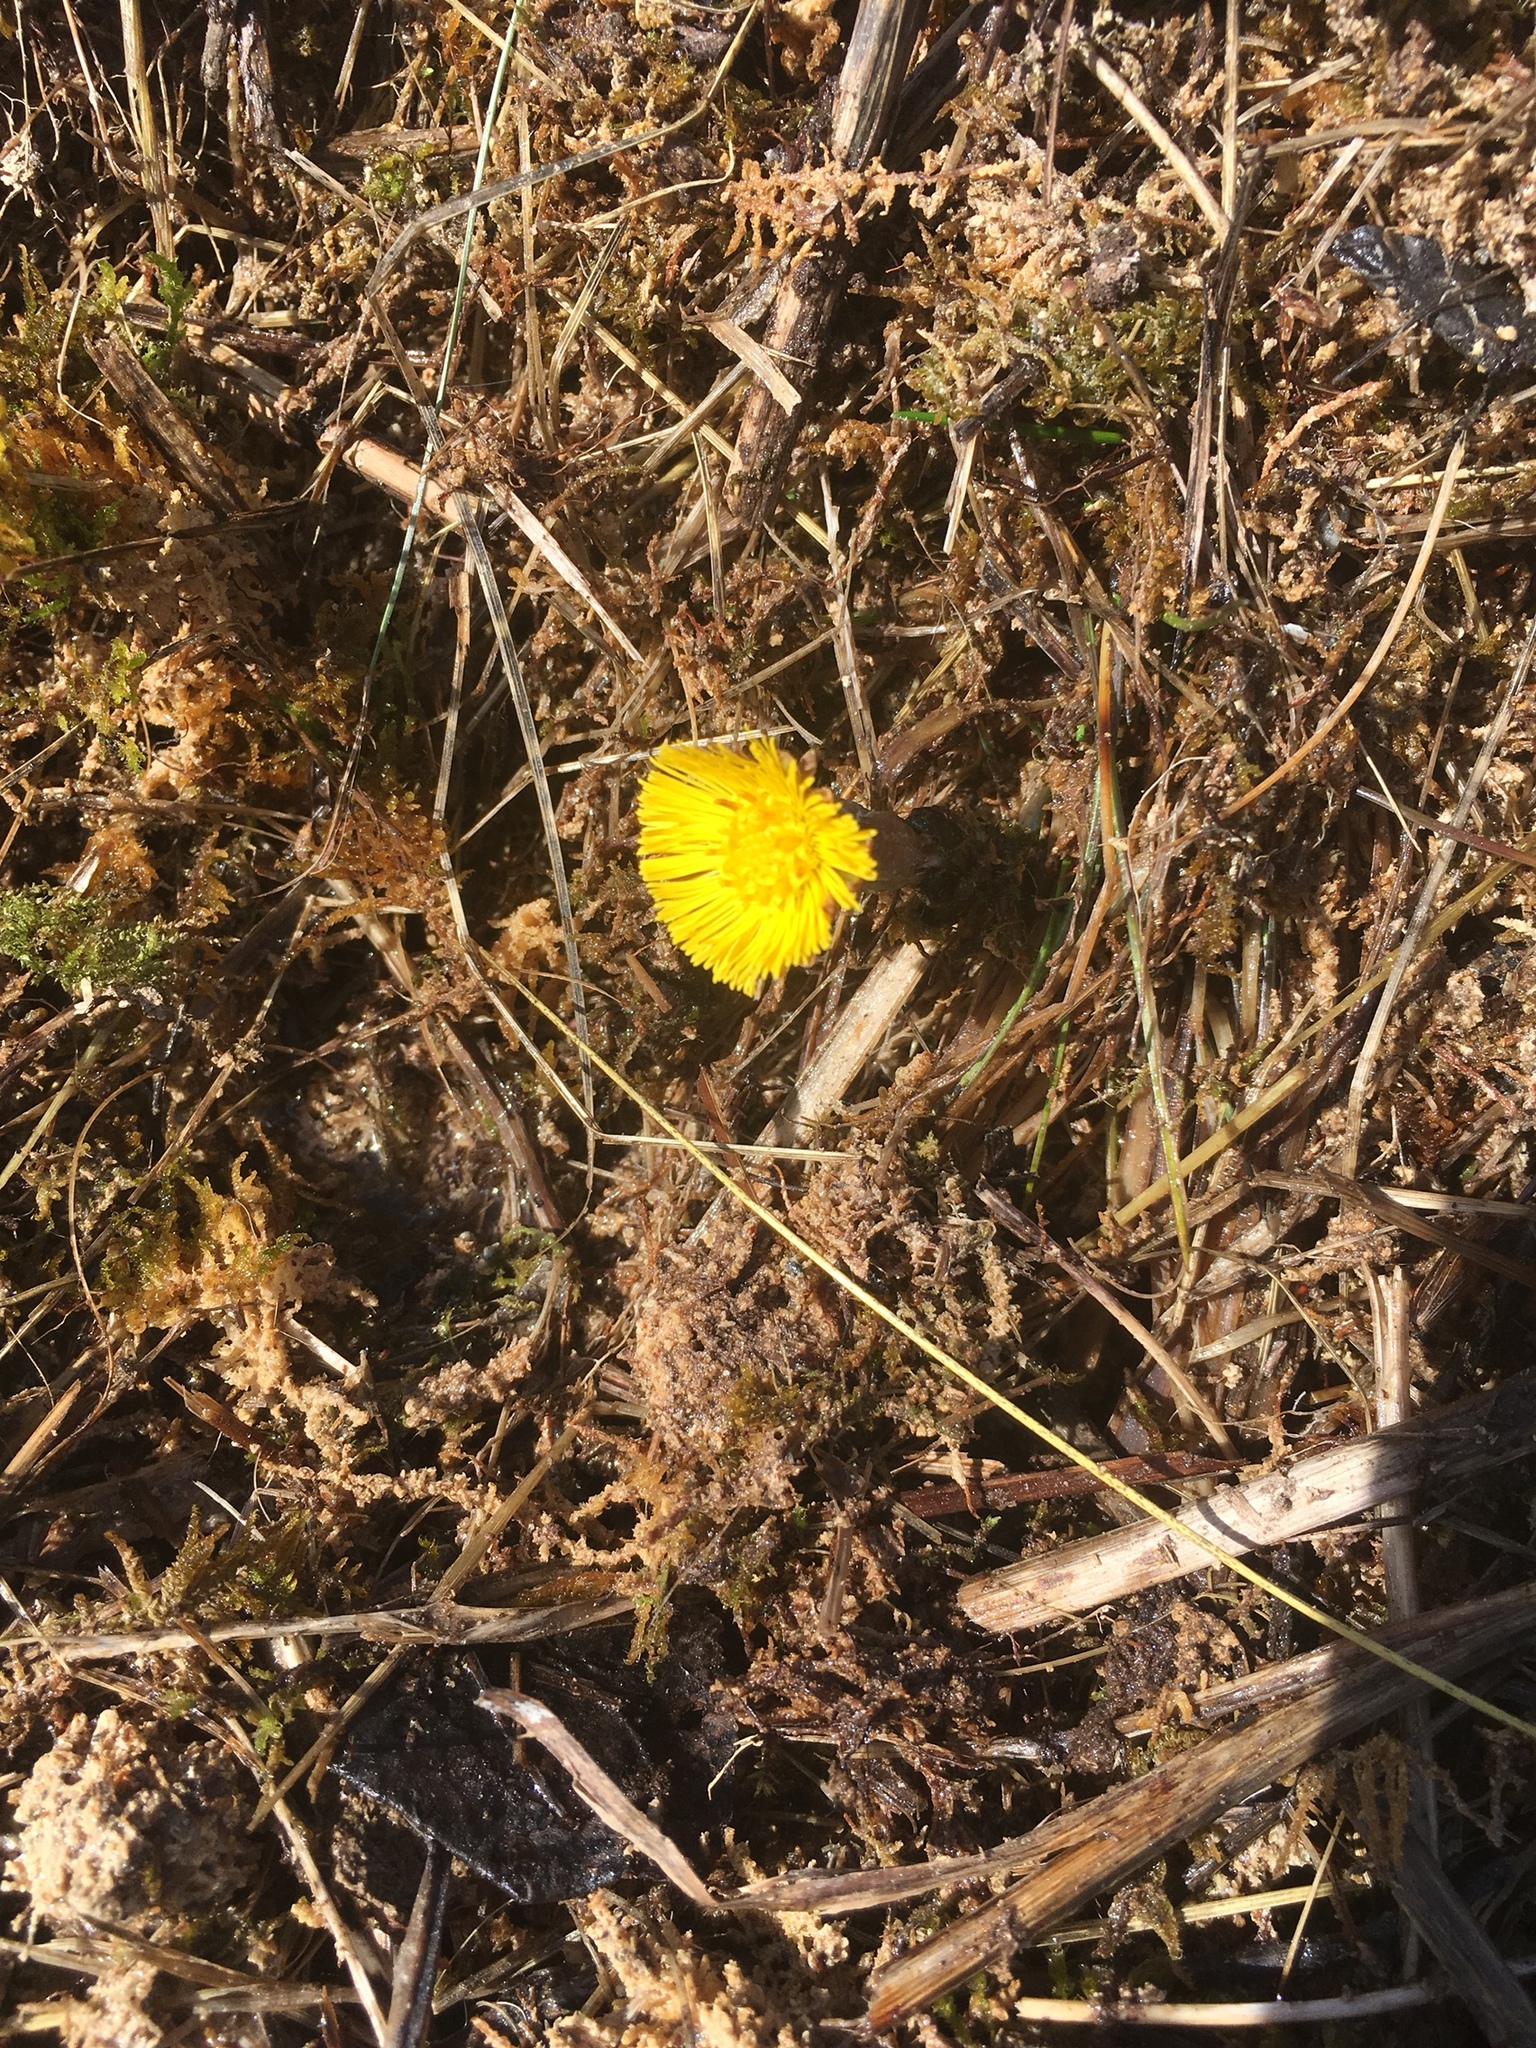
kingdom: Plantae
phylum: Tracheophyta
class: Magnoliopsida
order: Asterales
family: Asteraceae
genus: Tussilago
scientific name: Tussilago farfara
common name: Coltsfoot
